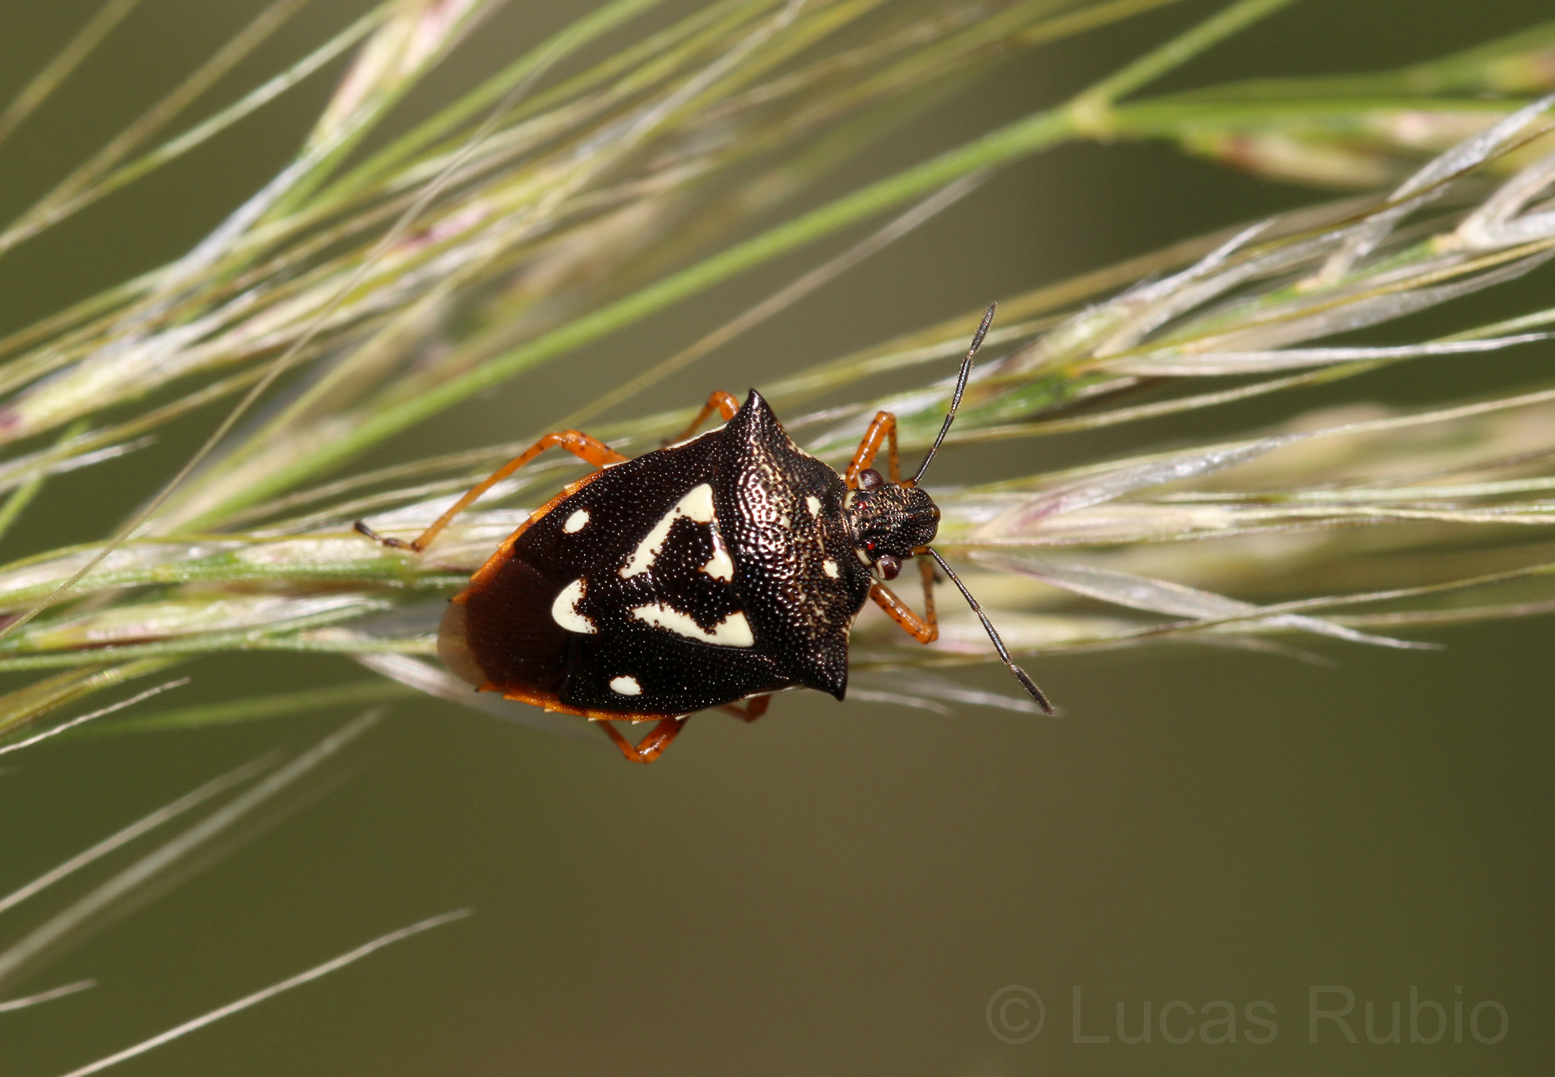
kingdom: Animalia
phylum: Arthropoda
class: Insecta
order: Hemiptera
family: Pentatomidae
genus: Mormidea
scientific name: Mormidea v-luteum
